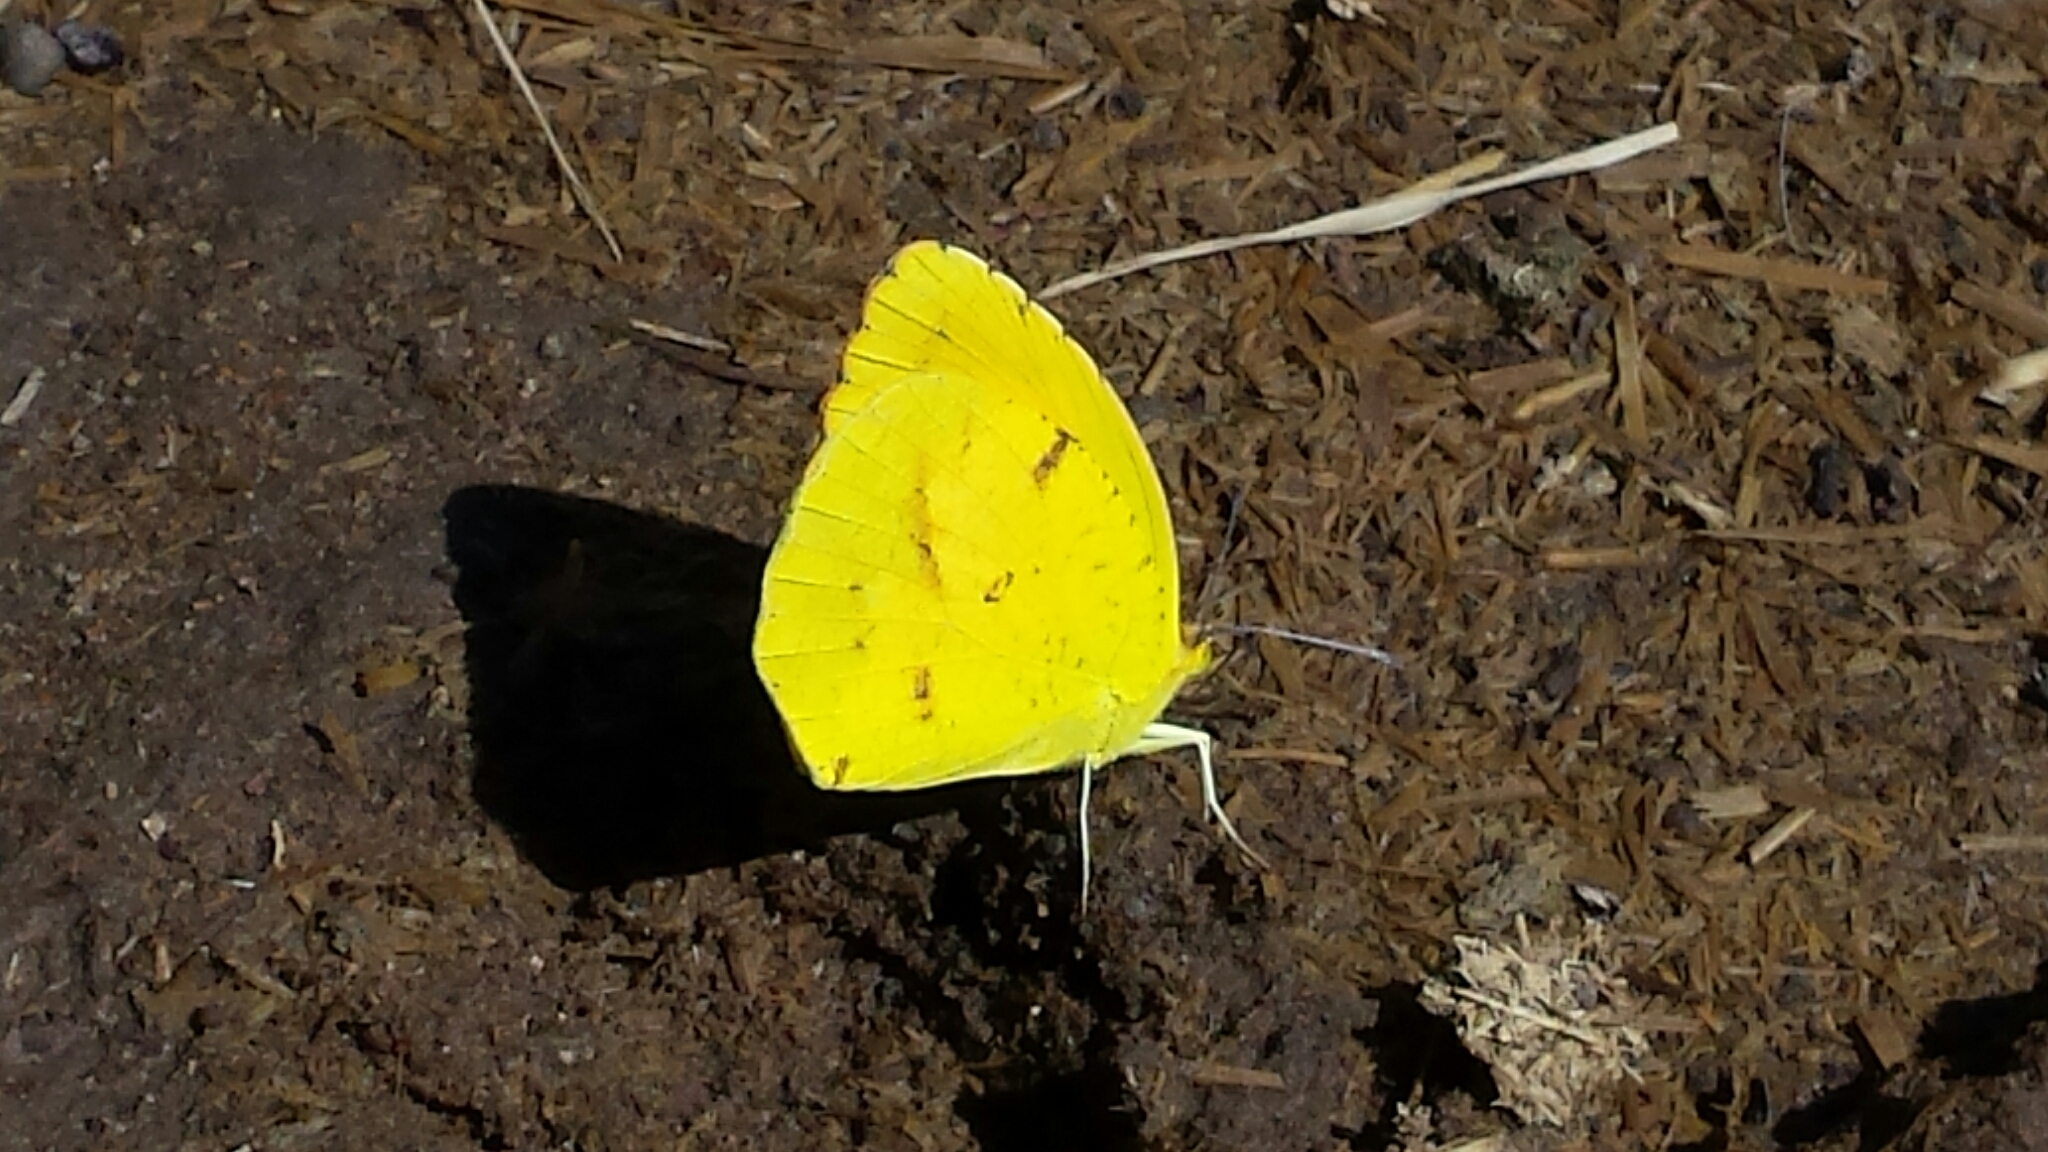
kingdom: Animalia
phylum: Arthropoda
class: Insecta
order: Lepidoptera
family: Pieridae
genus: Abaeis
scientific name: Abaeis nicippe
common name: Sleepy orange
